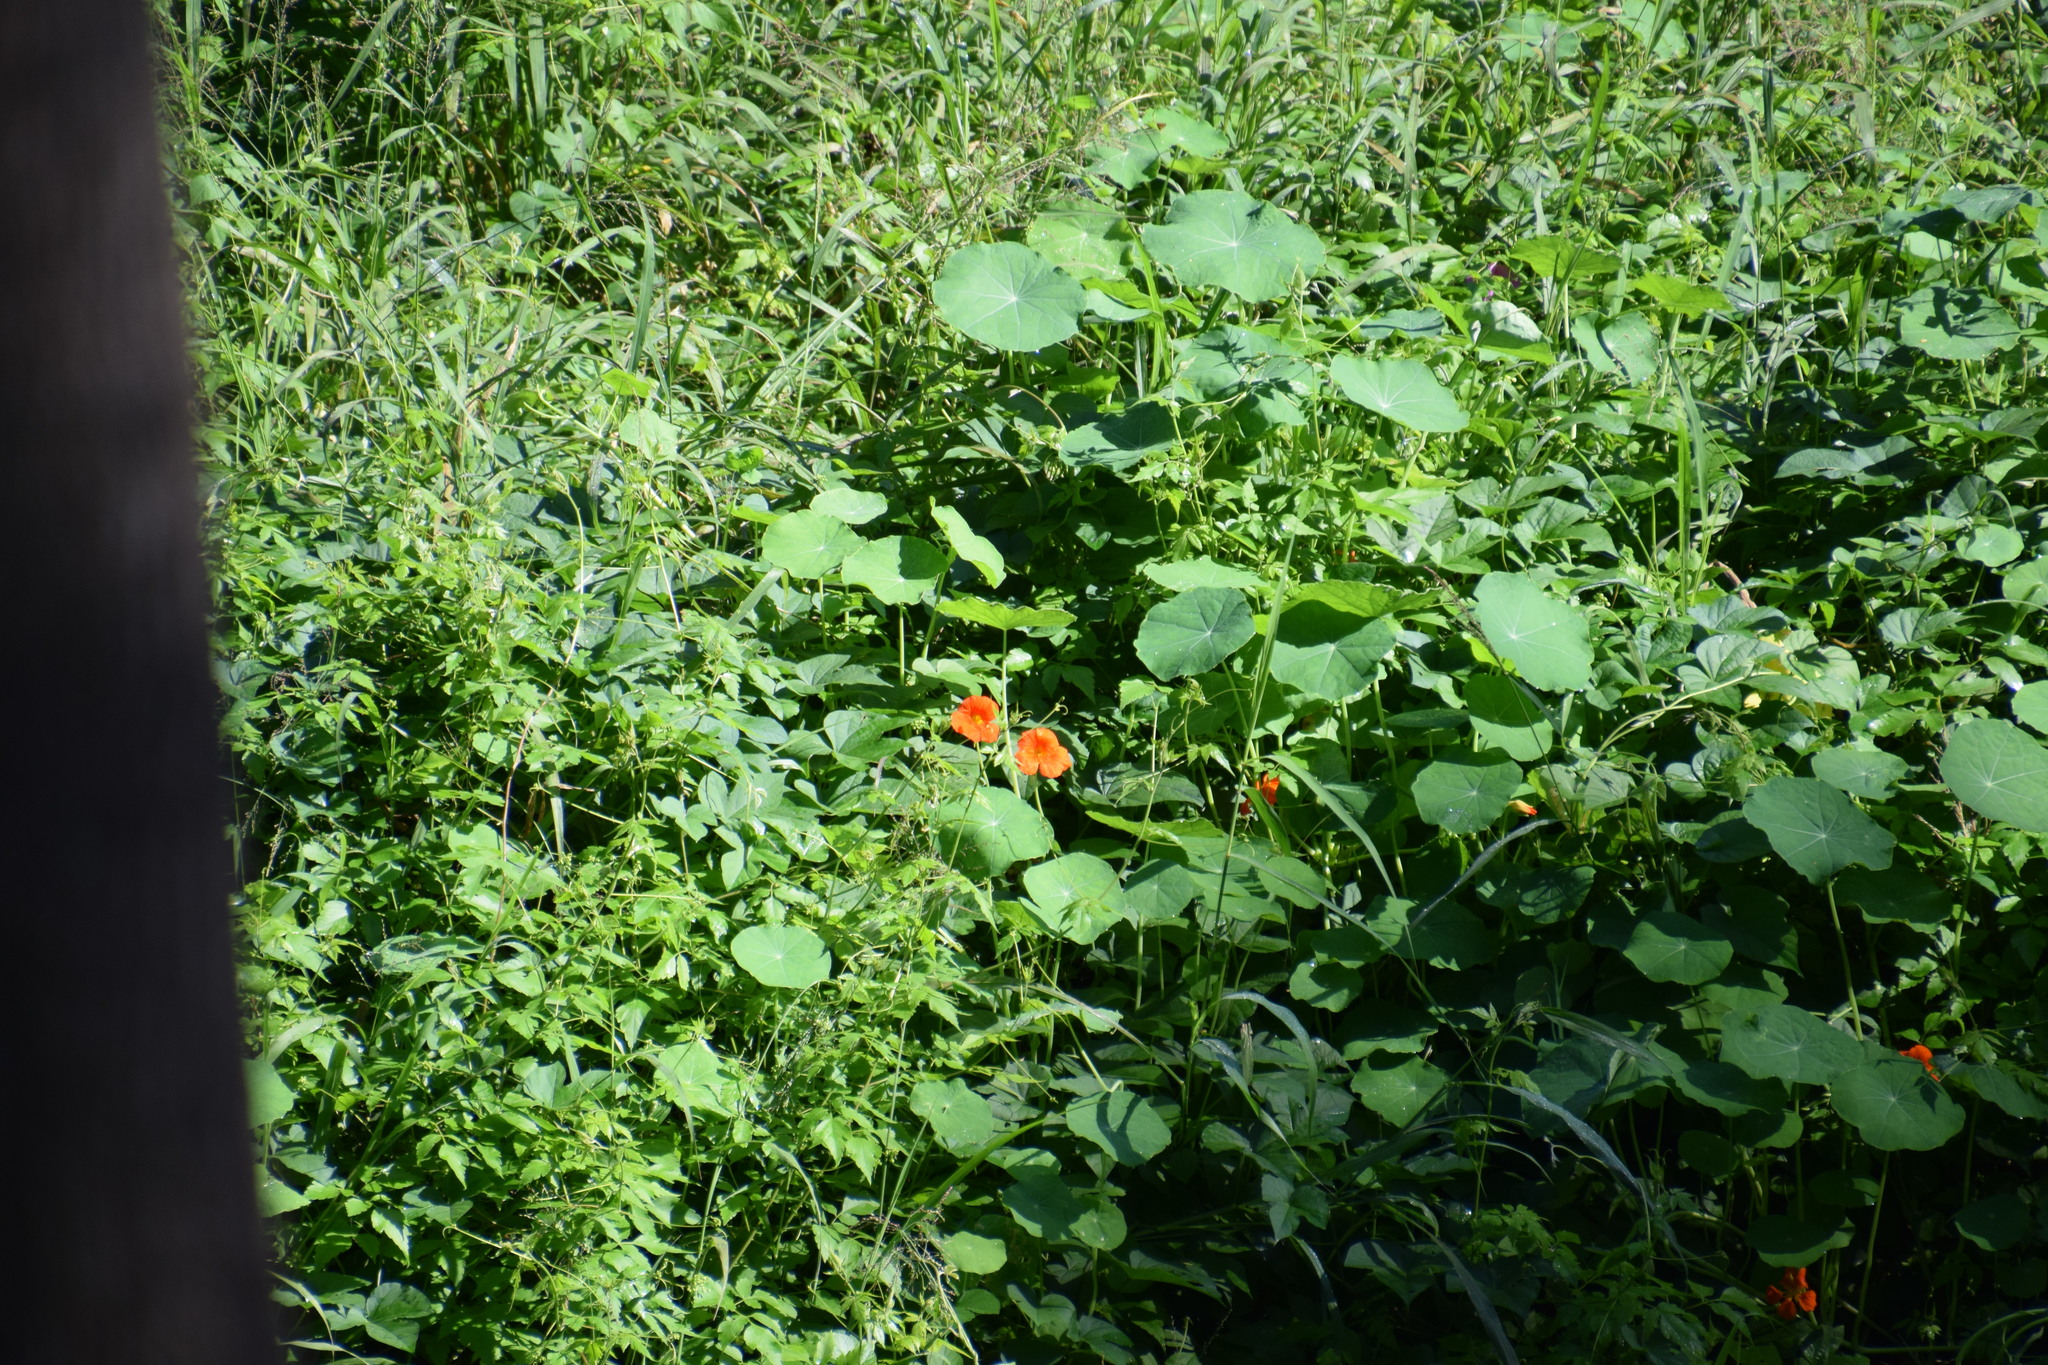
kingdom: Plantae
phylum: Tracheophyta
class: Magnoliopsida
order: Brassicales
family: Tropaeolaceae
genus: Tropaeolum
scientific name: Tropaeolum majus
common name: Nasturtium
